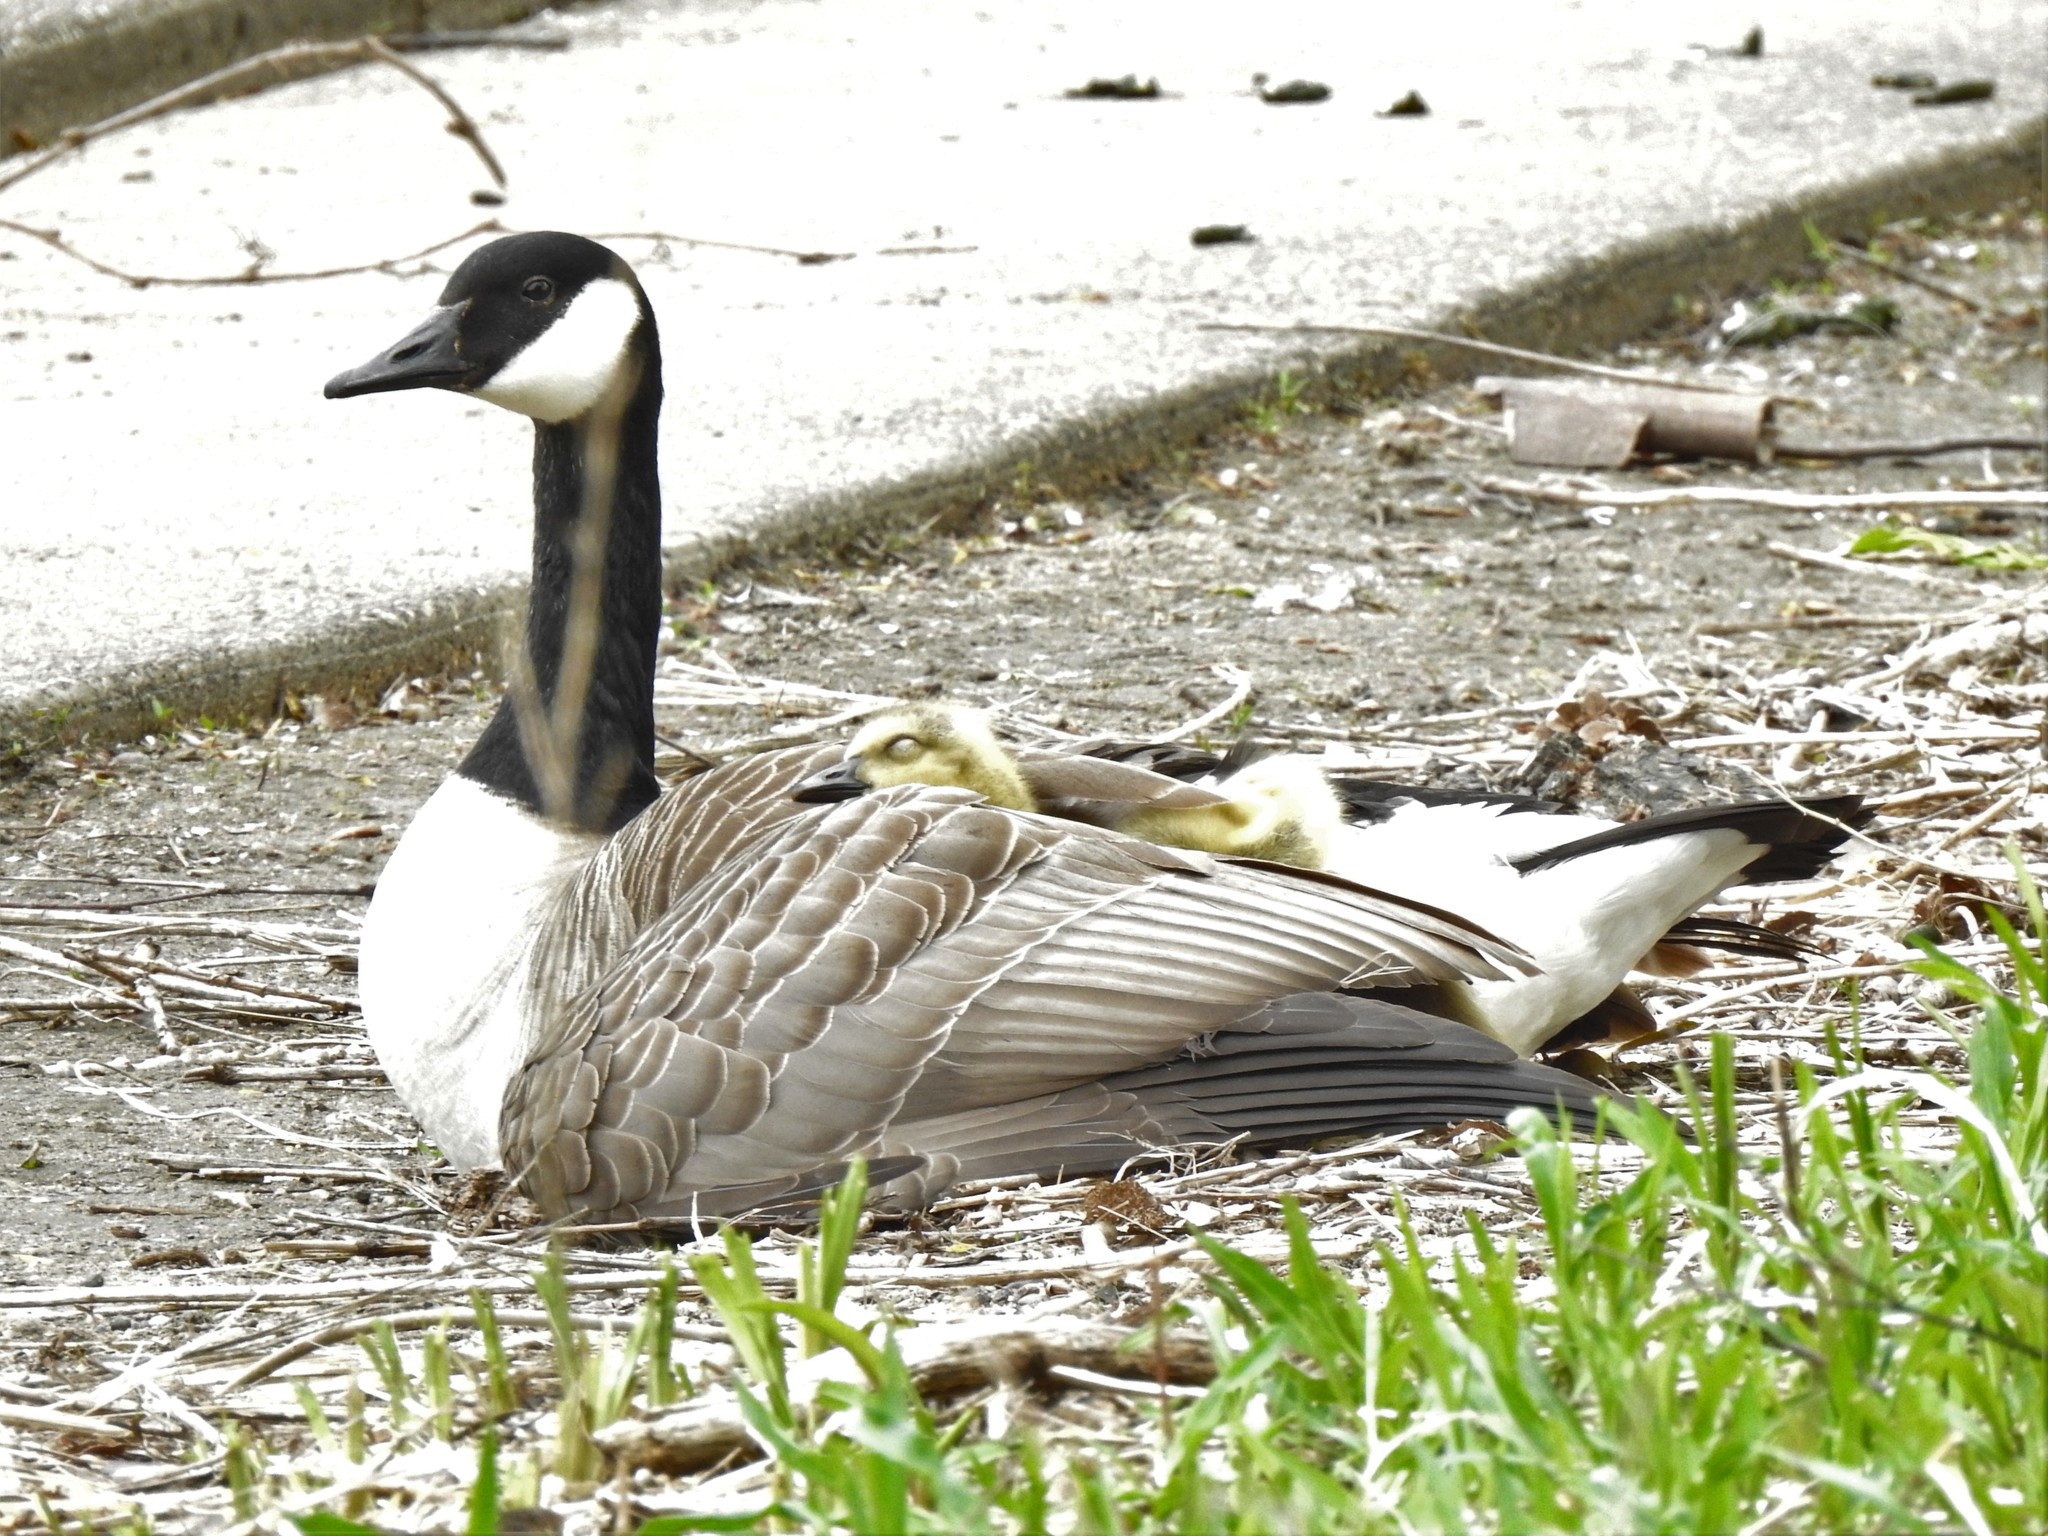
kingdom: Animalia
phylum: Chordata
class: Aves
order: Anseriformes
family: Anatidae
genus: Branta
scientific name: Branta canadensis
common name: Canada goose
